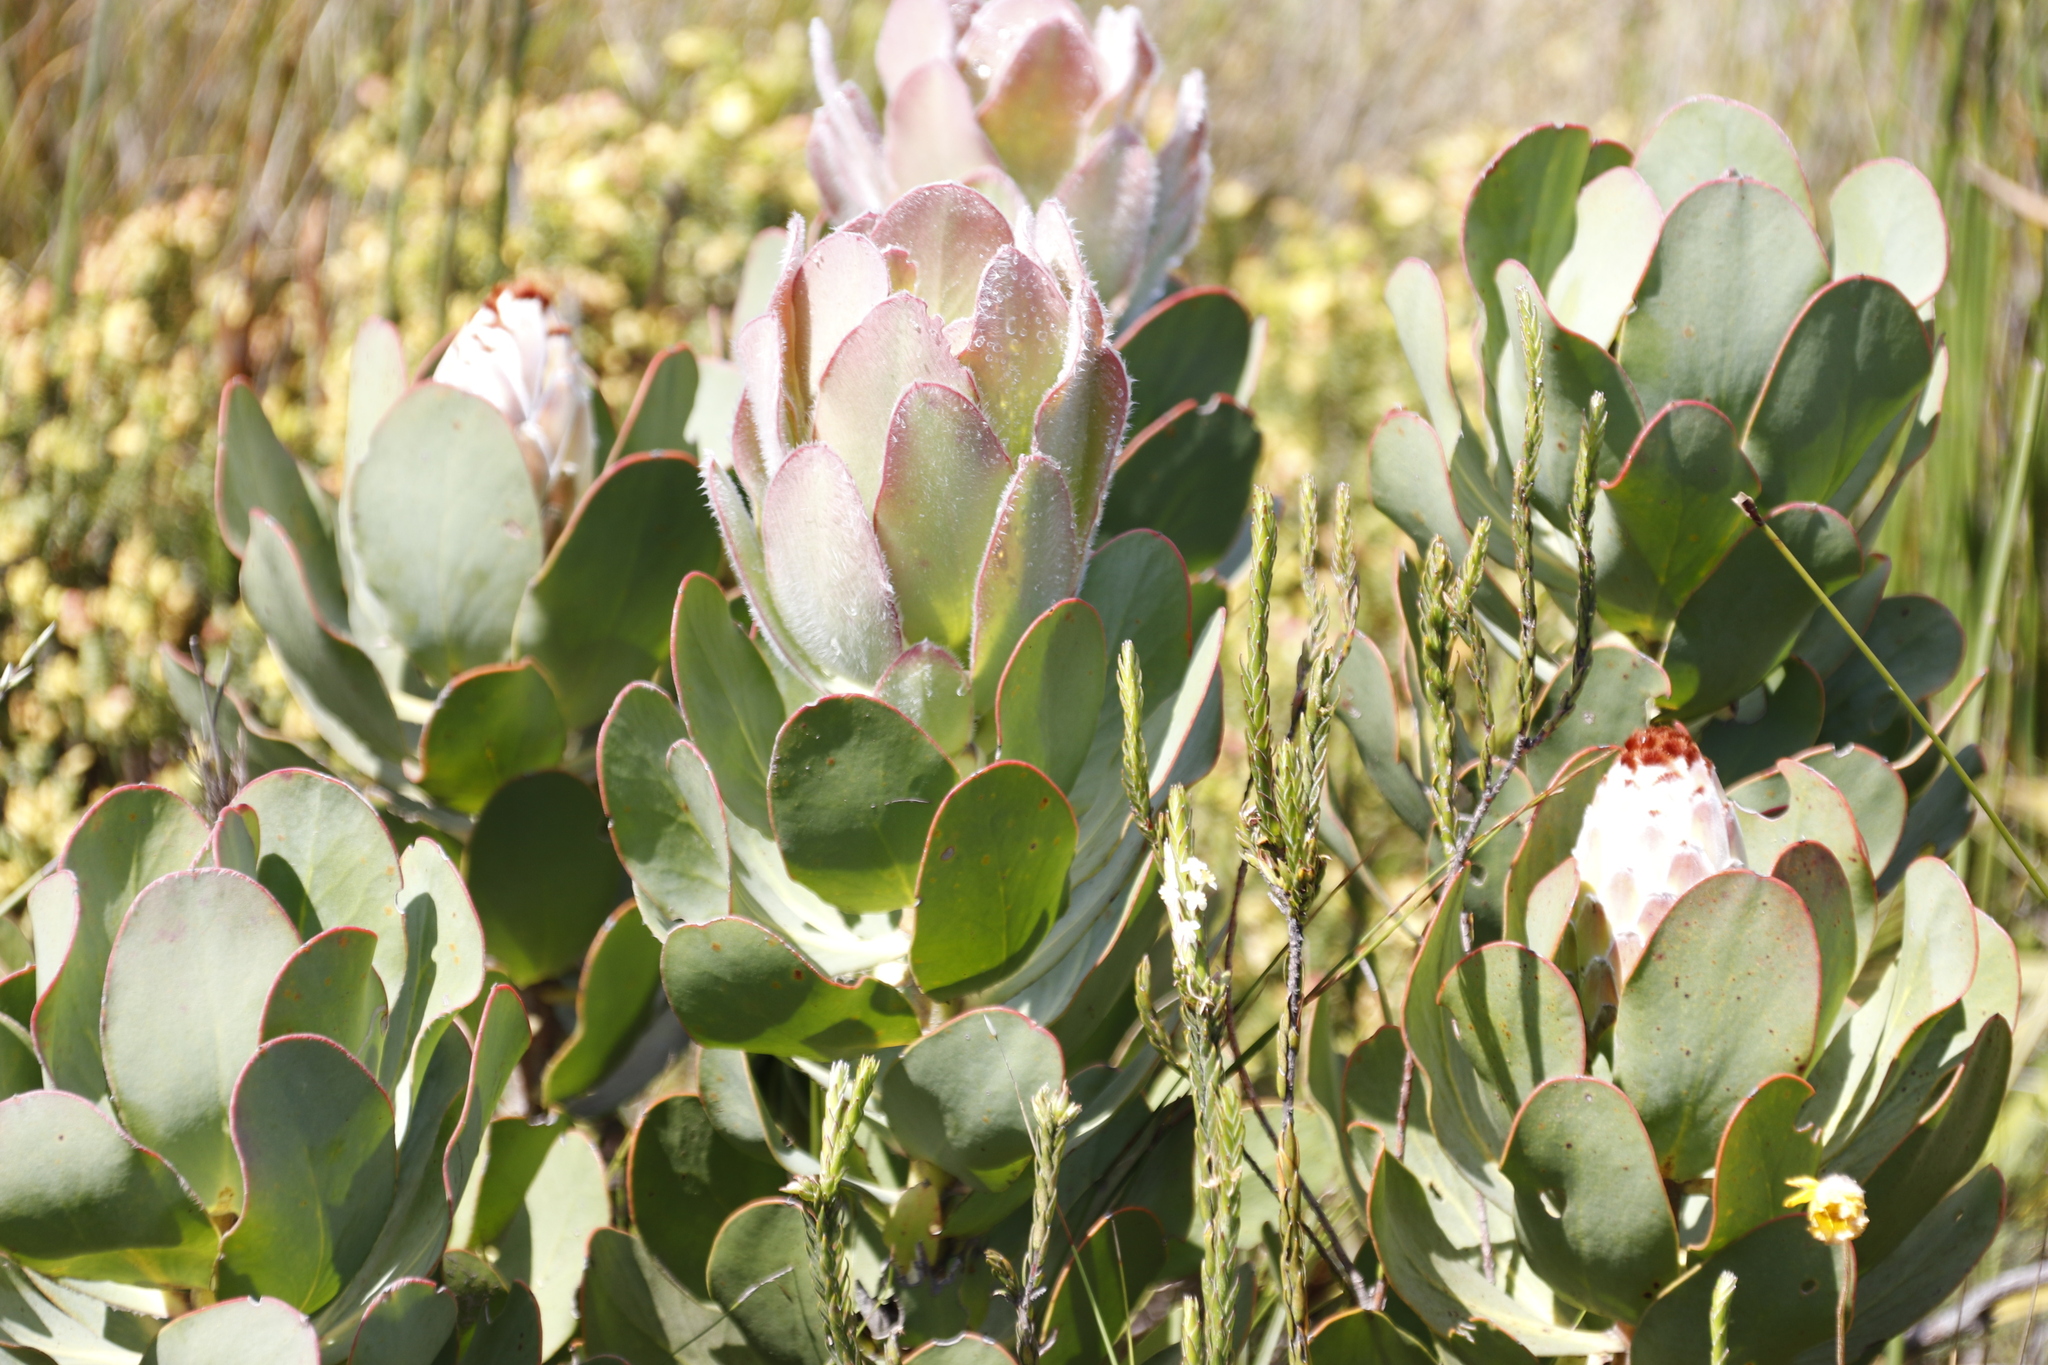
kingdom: Plantae
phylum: Tracheophyta
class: Magnoliopsida
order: Proteales
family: Proteaceae
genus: Protea
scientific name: Protea speciosa
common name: Brown-beard sugarbush
